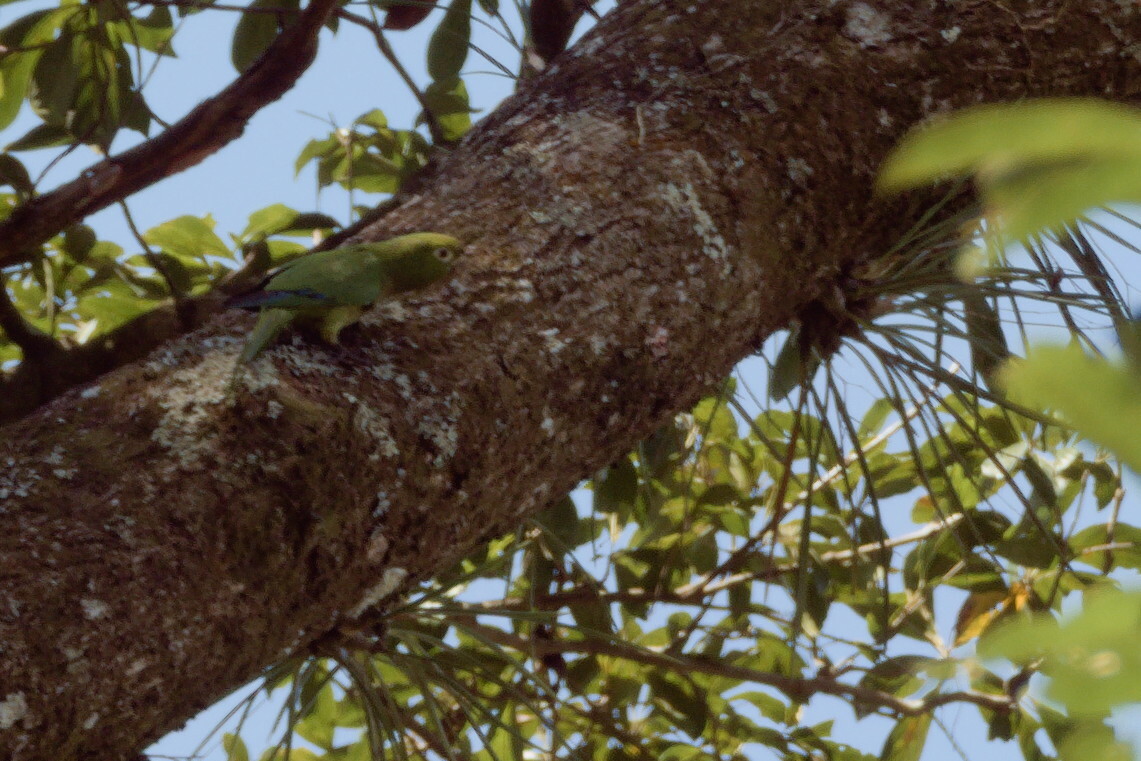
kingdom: Animalia
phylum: Chordata
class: Aves
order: Psittaciformes
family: Psittacidae
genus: Aratinga
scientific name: Aratinga nana
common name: Olive-throated parakeet
